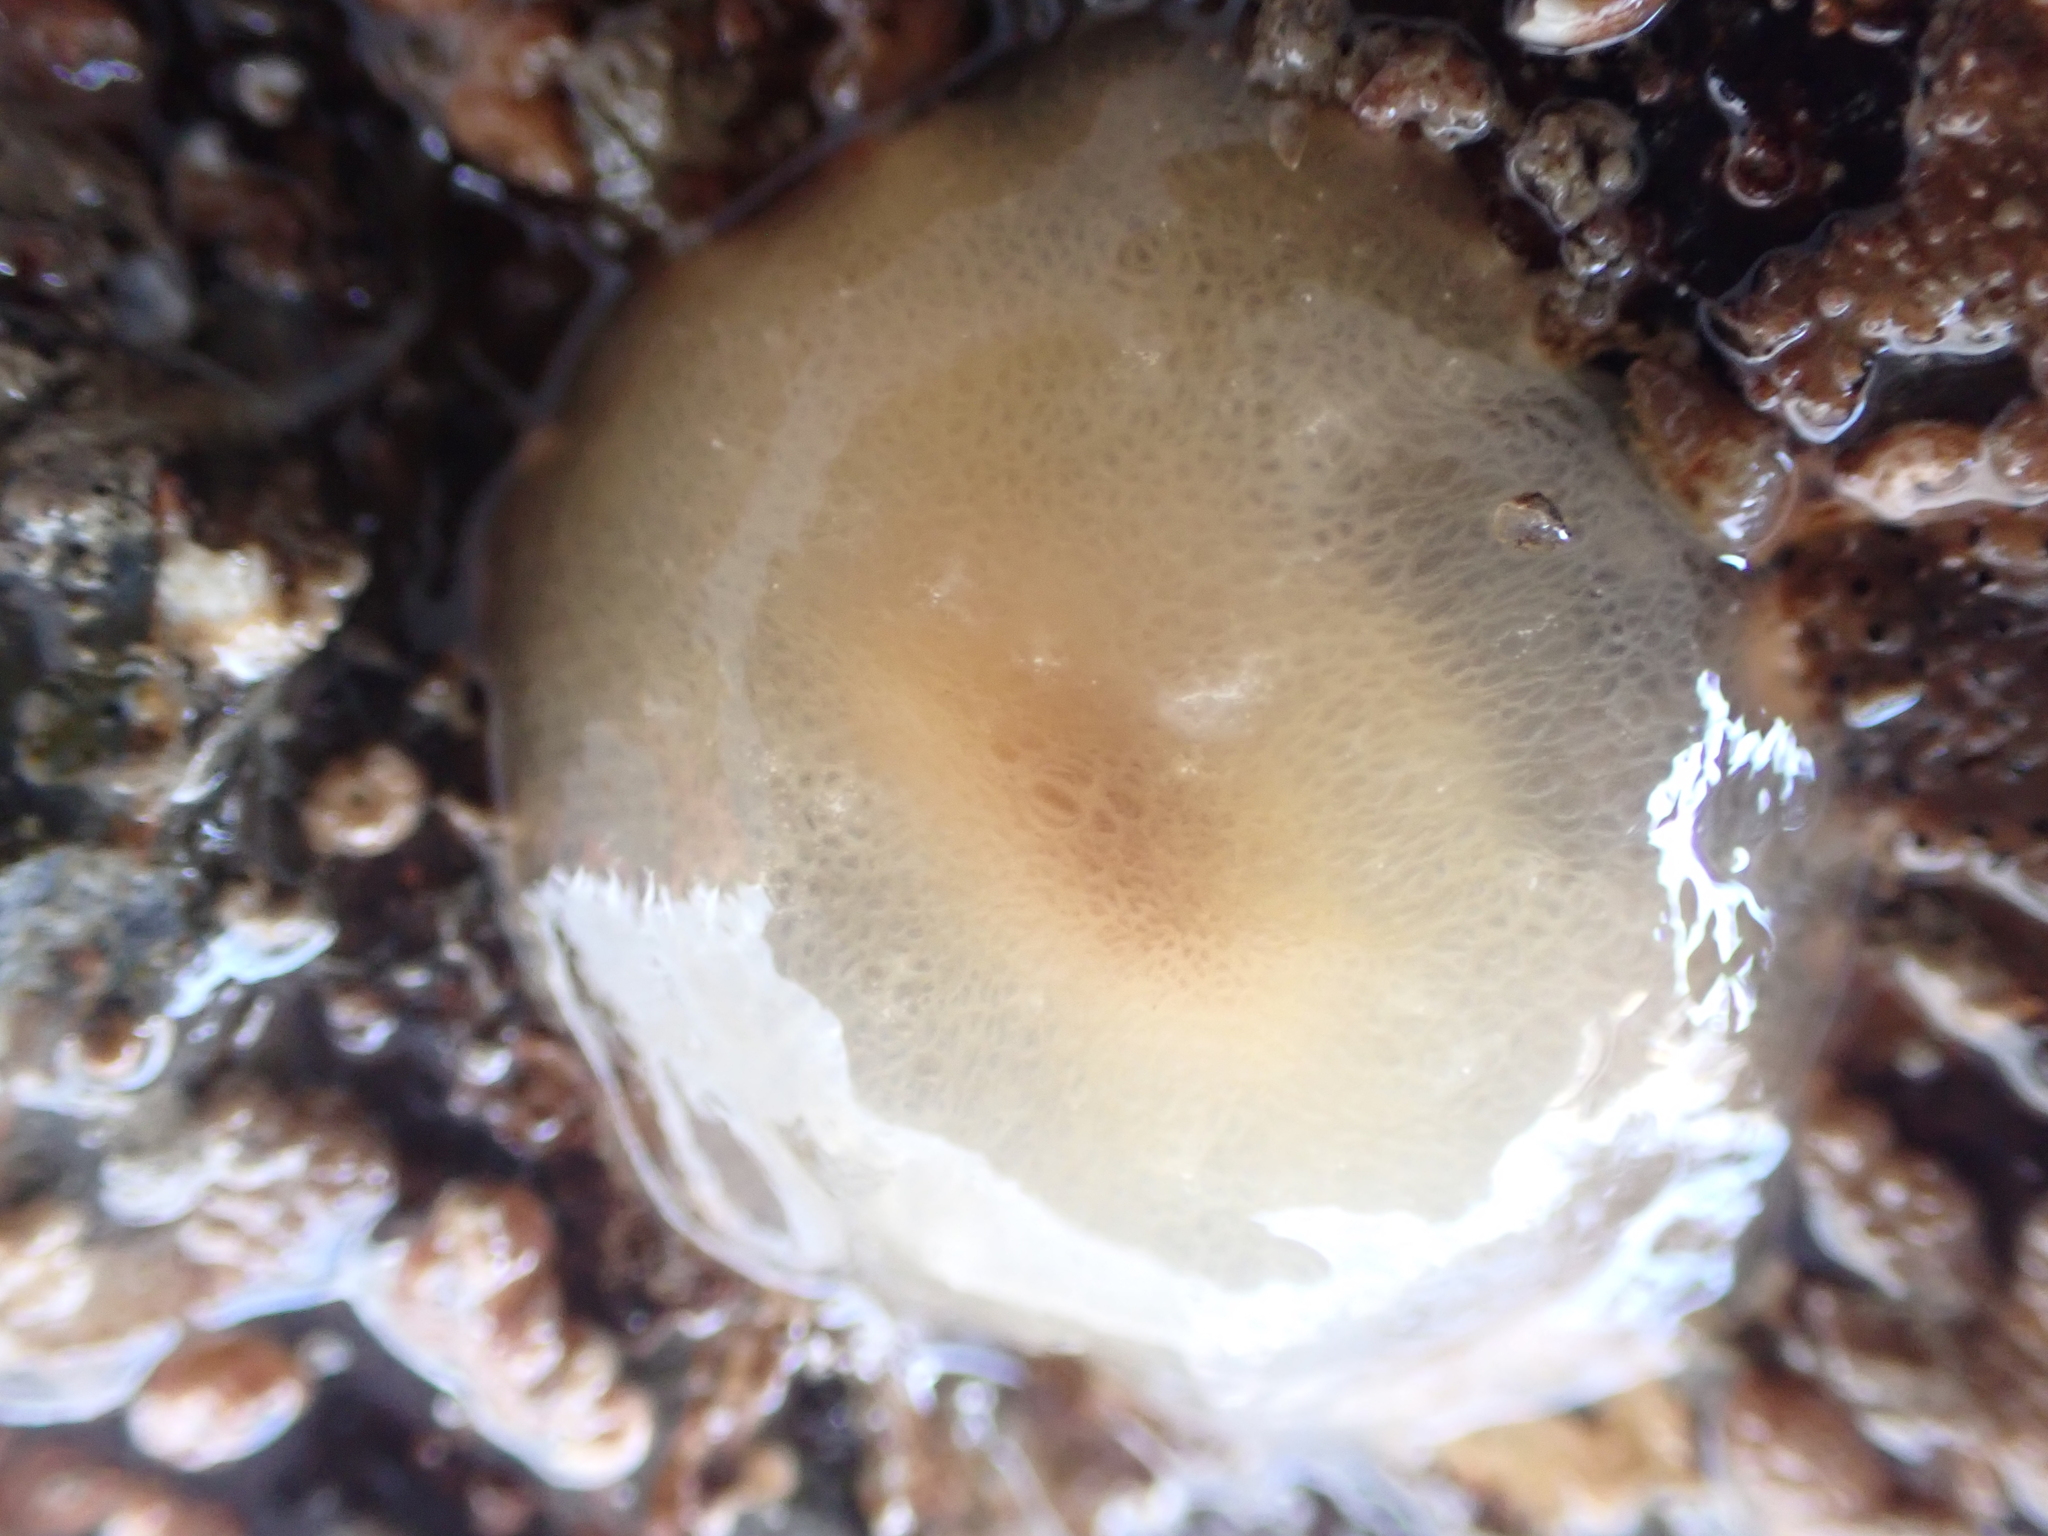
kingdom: Animalia
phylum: Mollusca
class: Gastropoda
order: Pleurobranchida
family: Pleurobranchidae
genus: Berthella
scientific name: Berthella plumula
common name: Yellow-plumed sea slug
